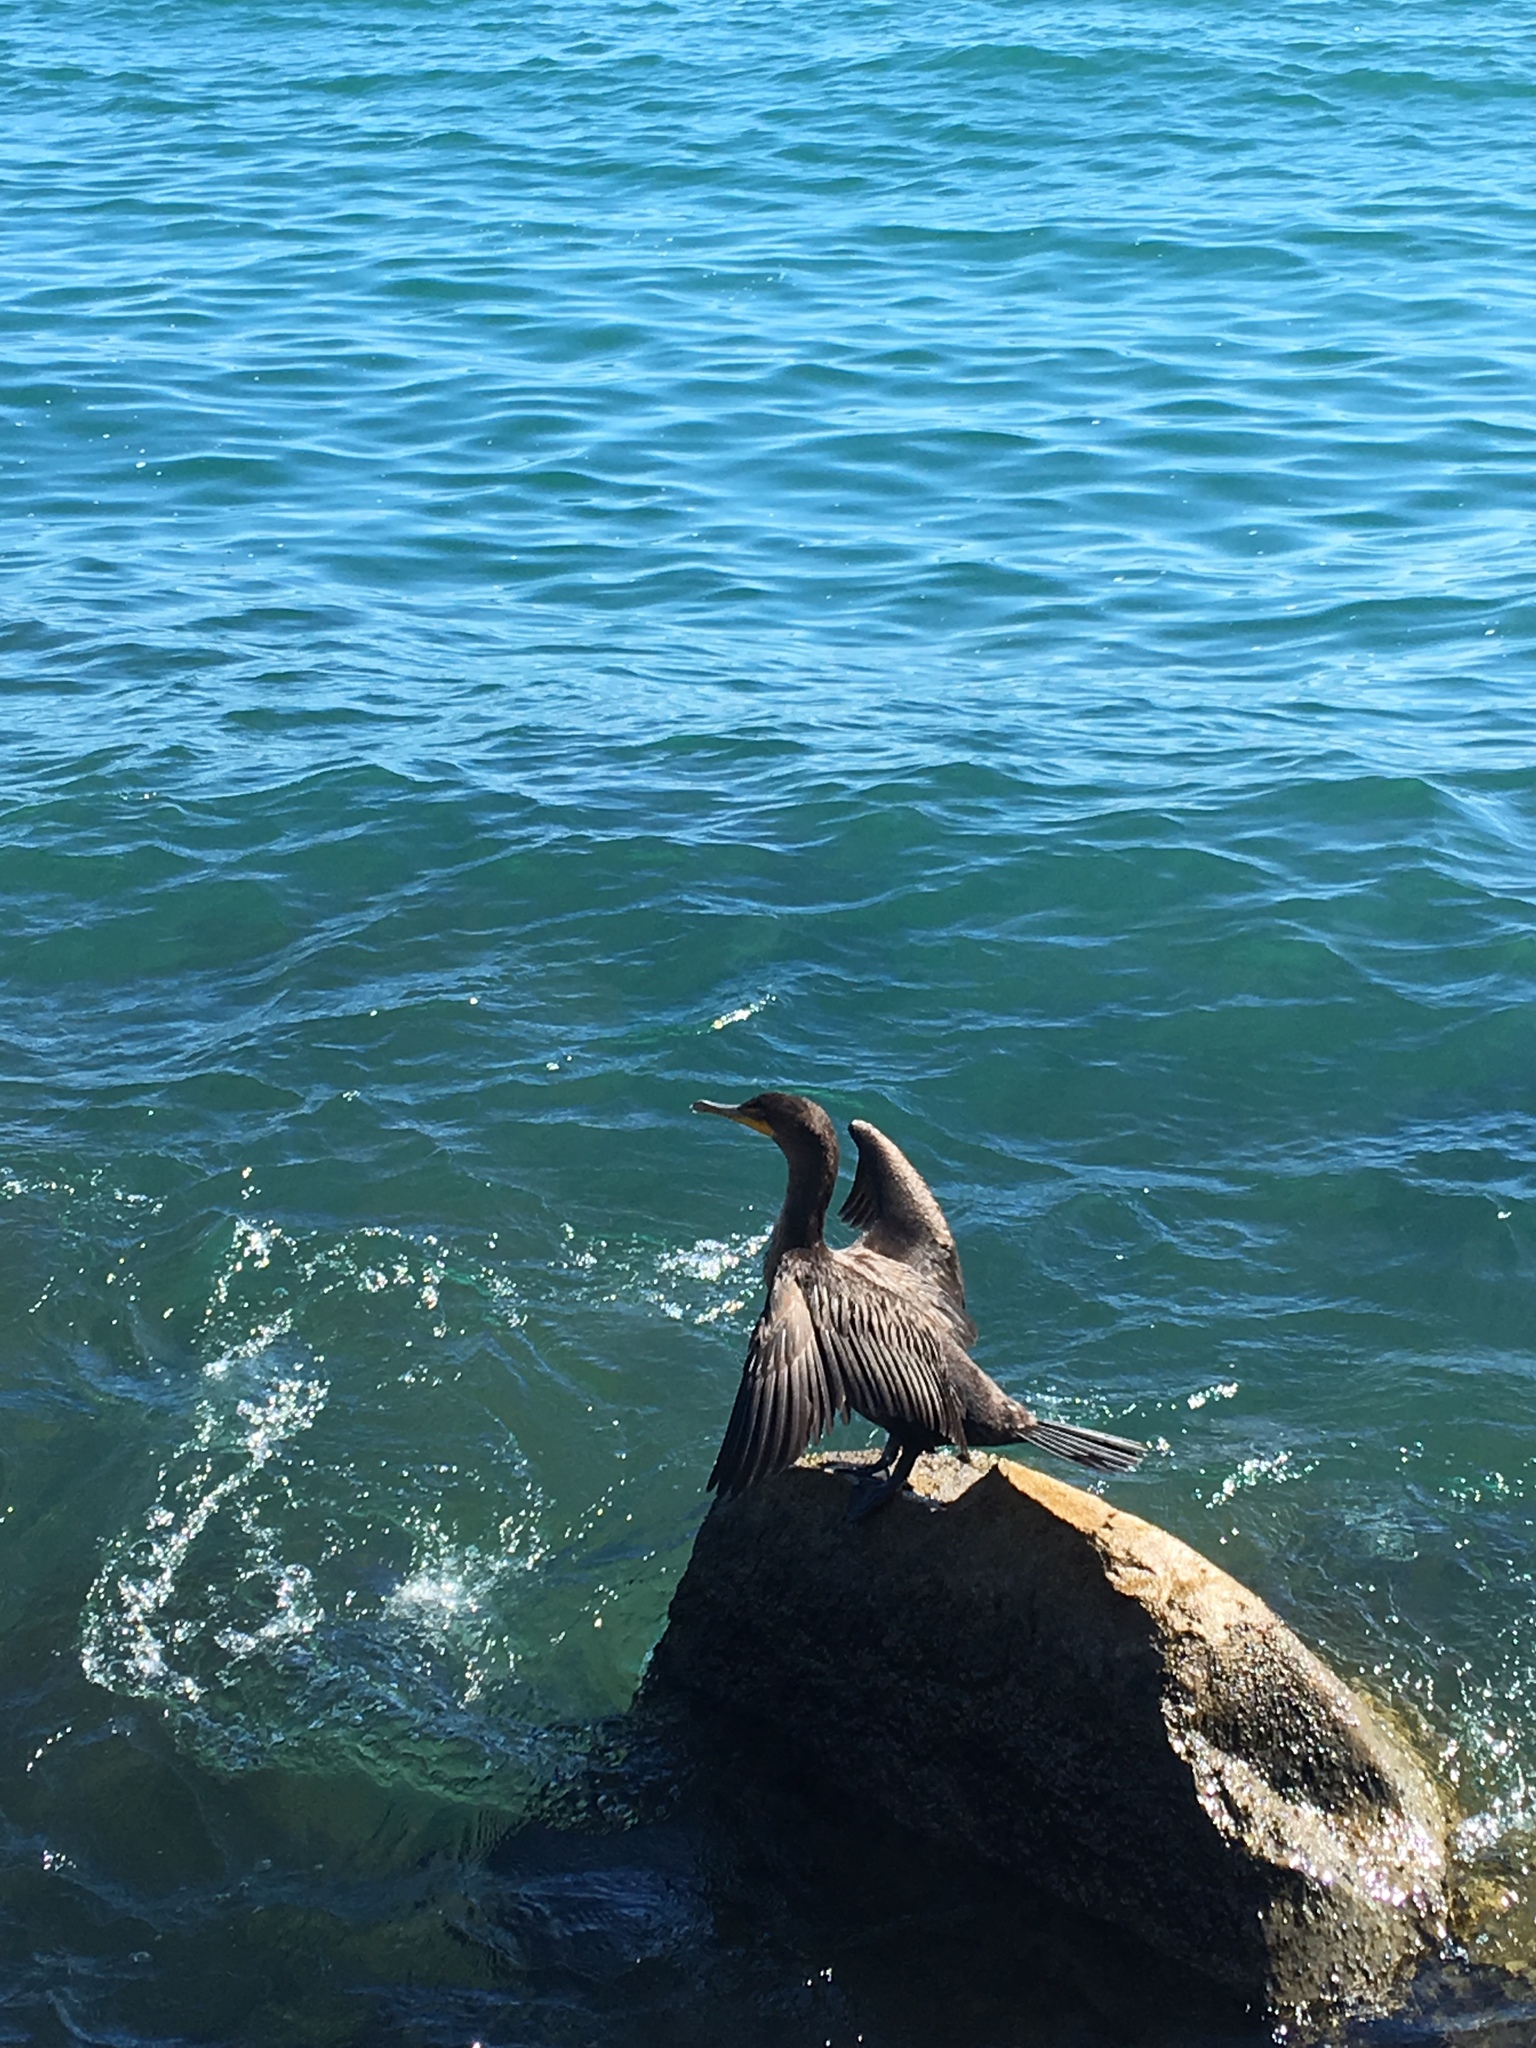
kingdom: Animalia
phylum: Chordata
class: Aves
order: Suliformes
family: Phalacrocoracidae
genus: Phalacrocorax
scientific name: Phalacrocorax auritus
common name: Double-crested cormorant
